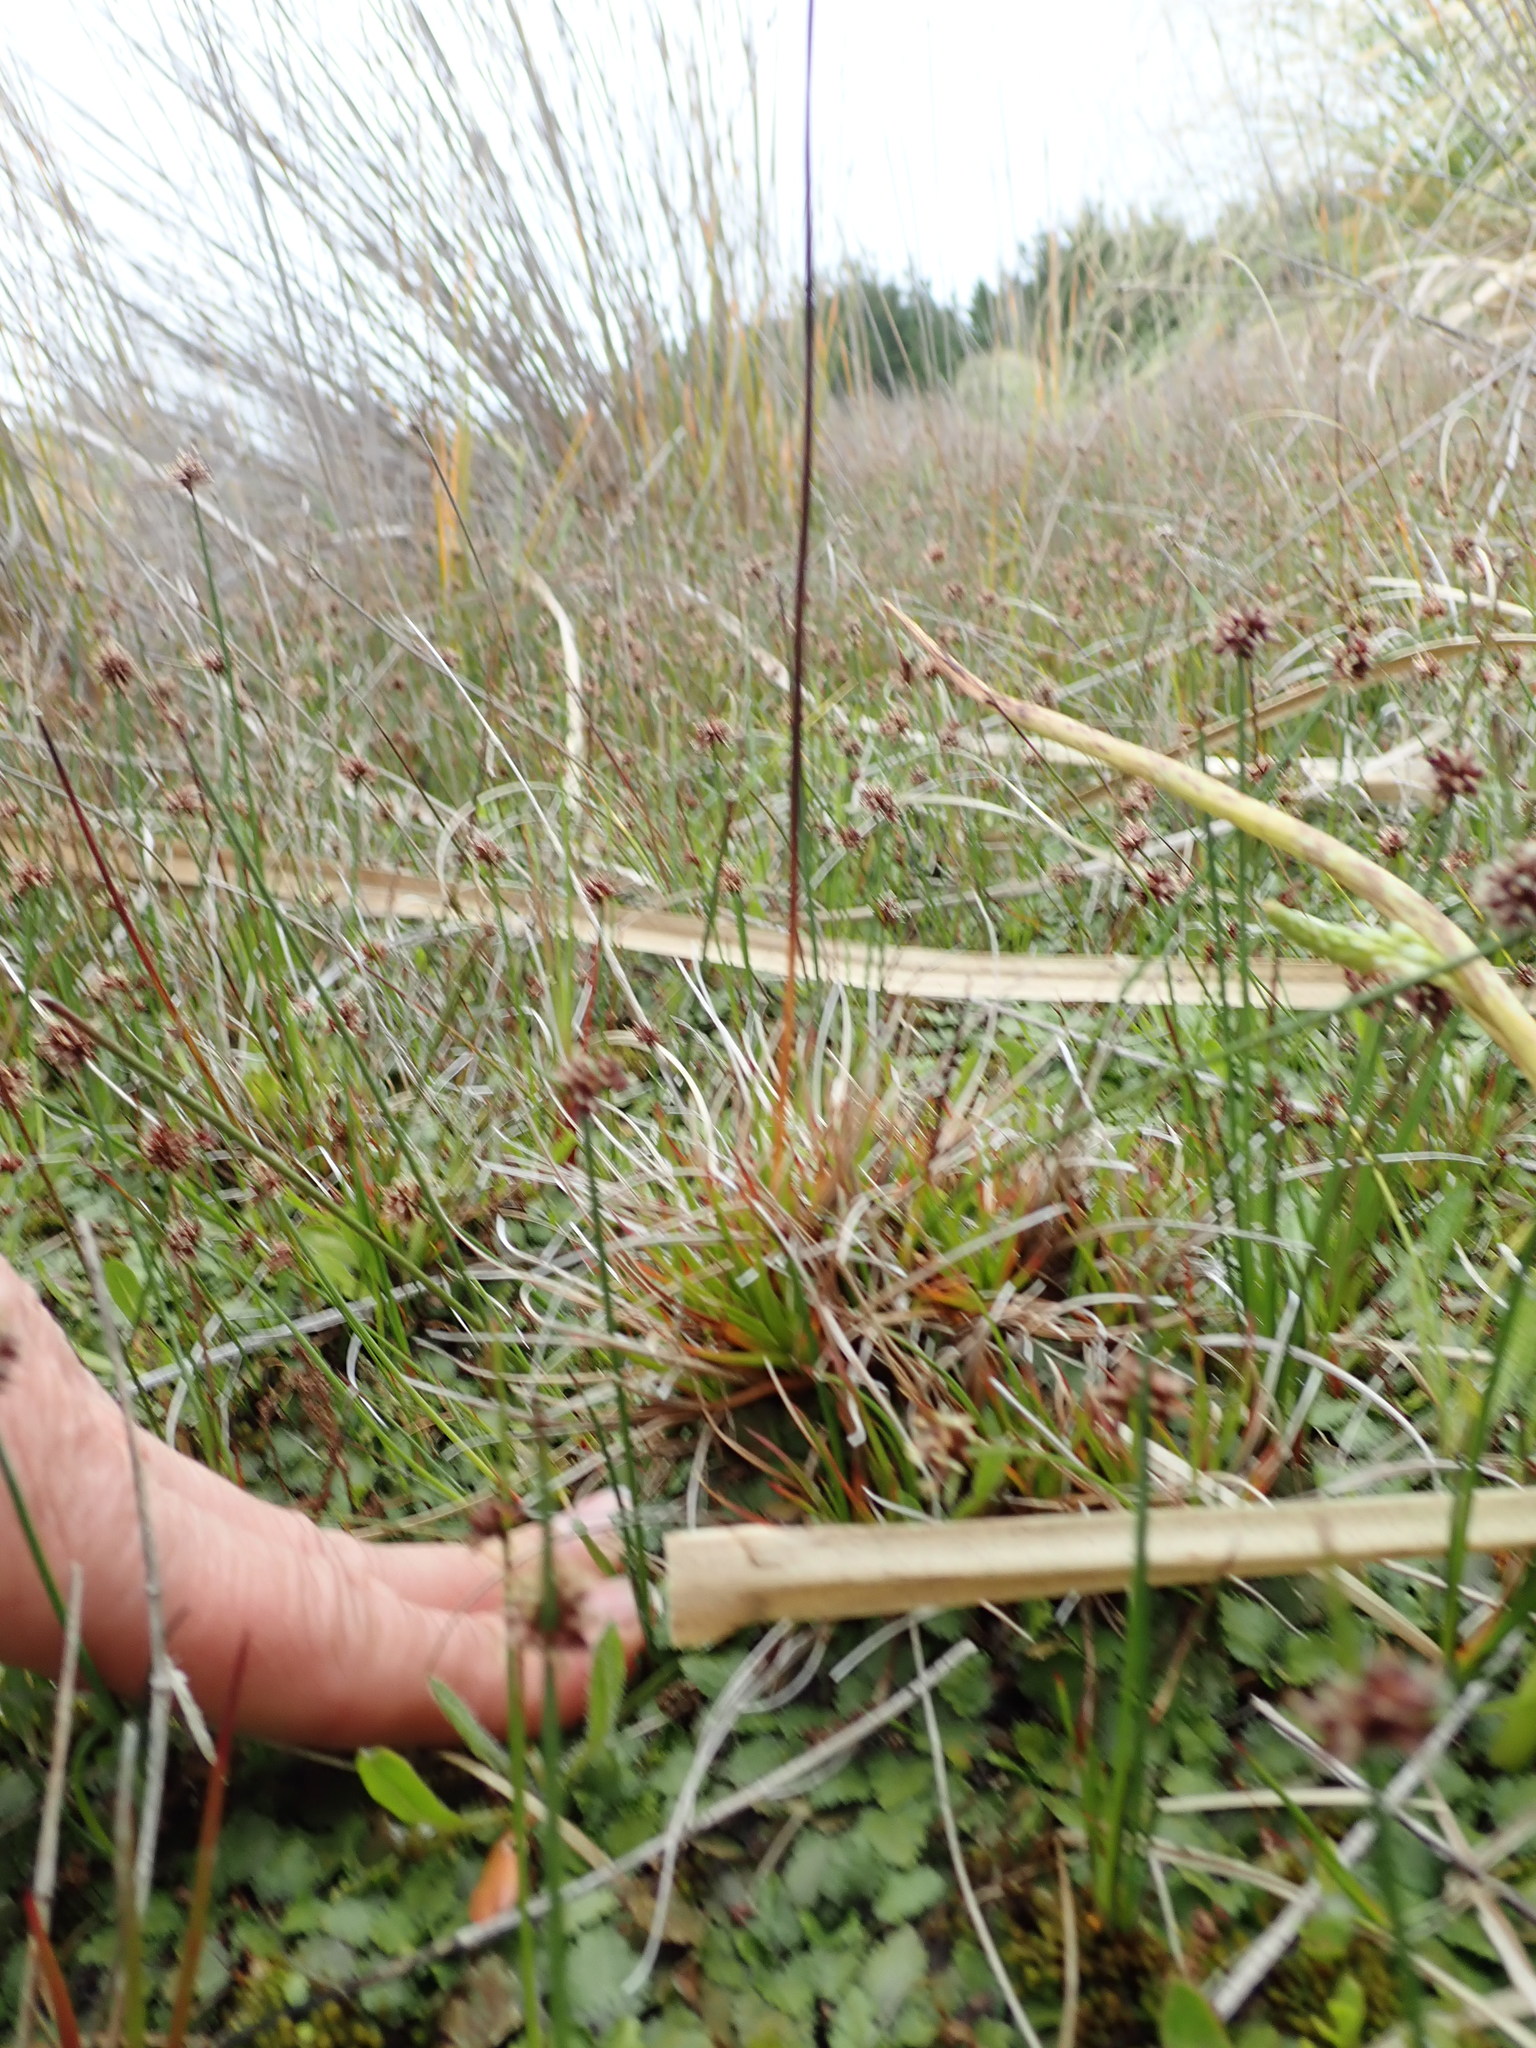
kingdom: Plantae
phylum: Tracheophyta
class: Liliopsida
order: Poales
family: Juncaceae
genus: Juncus
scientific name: Juncus caespiticius
